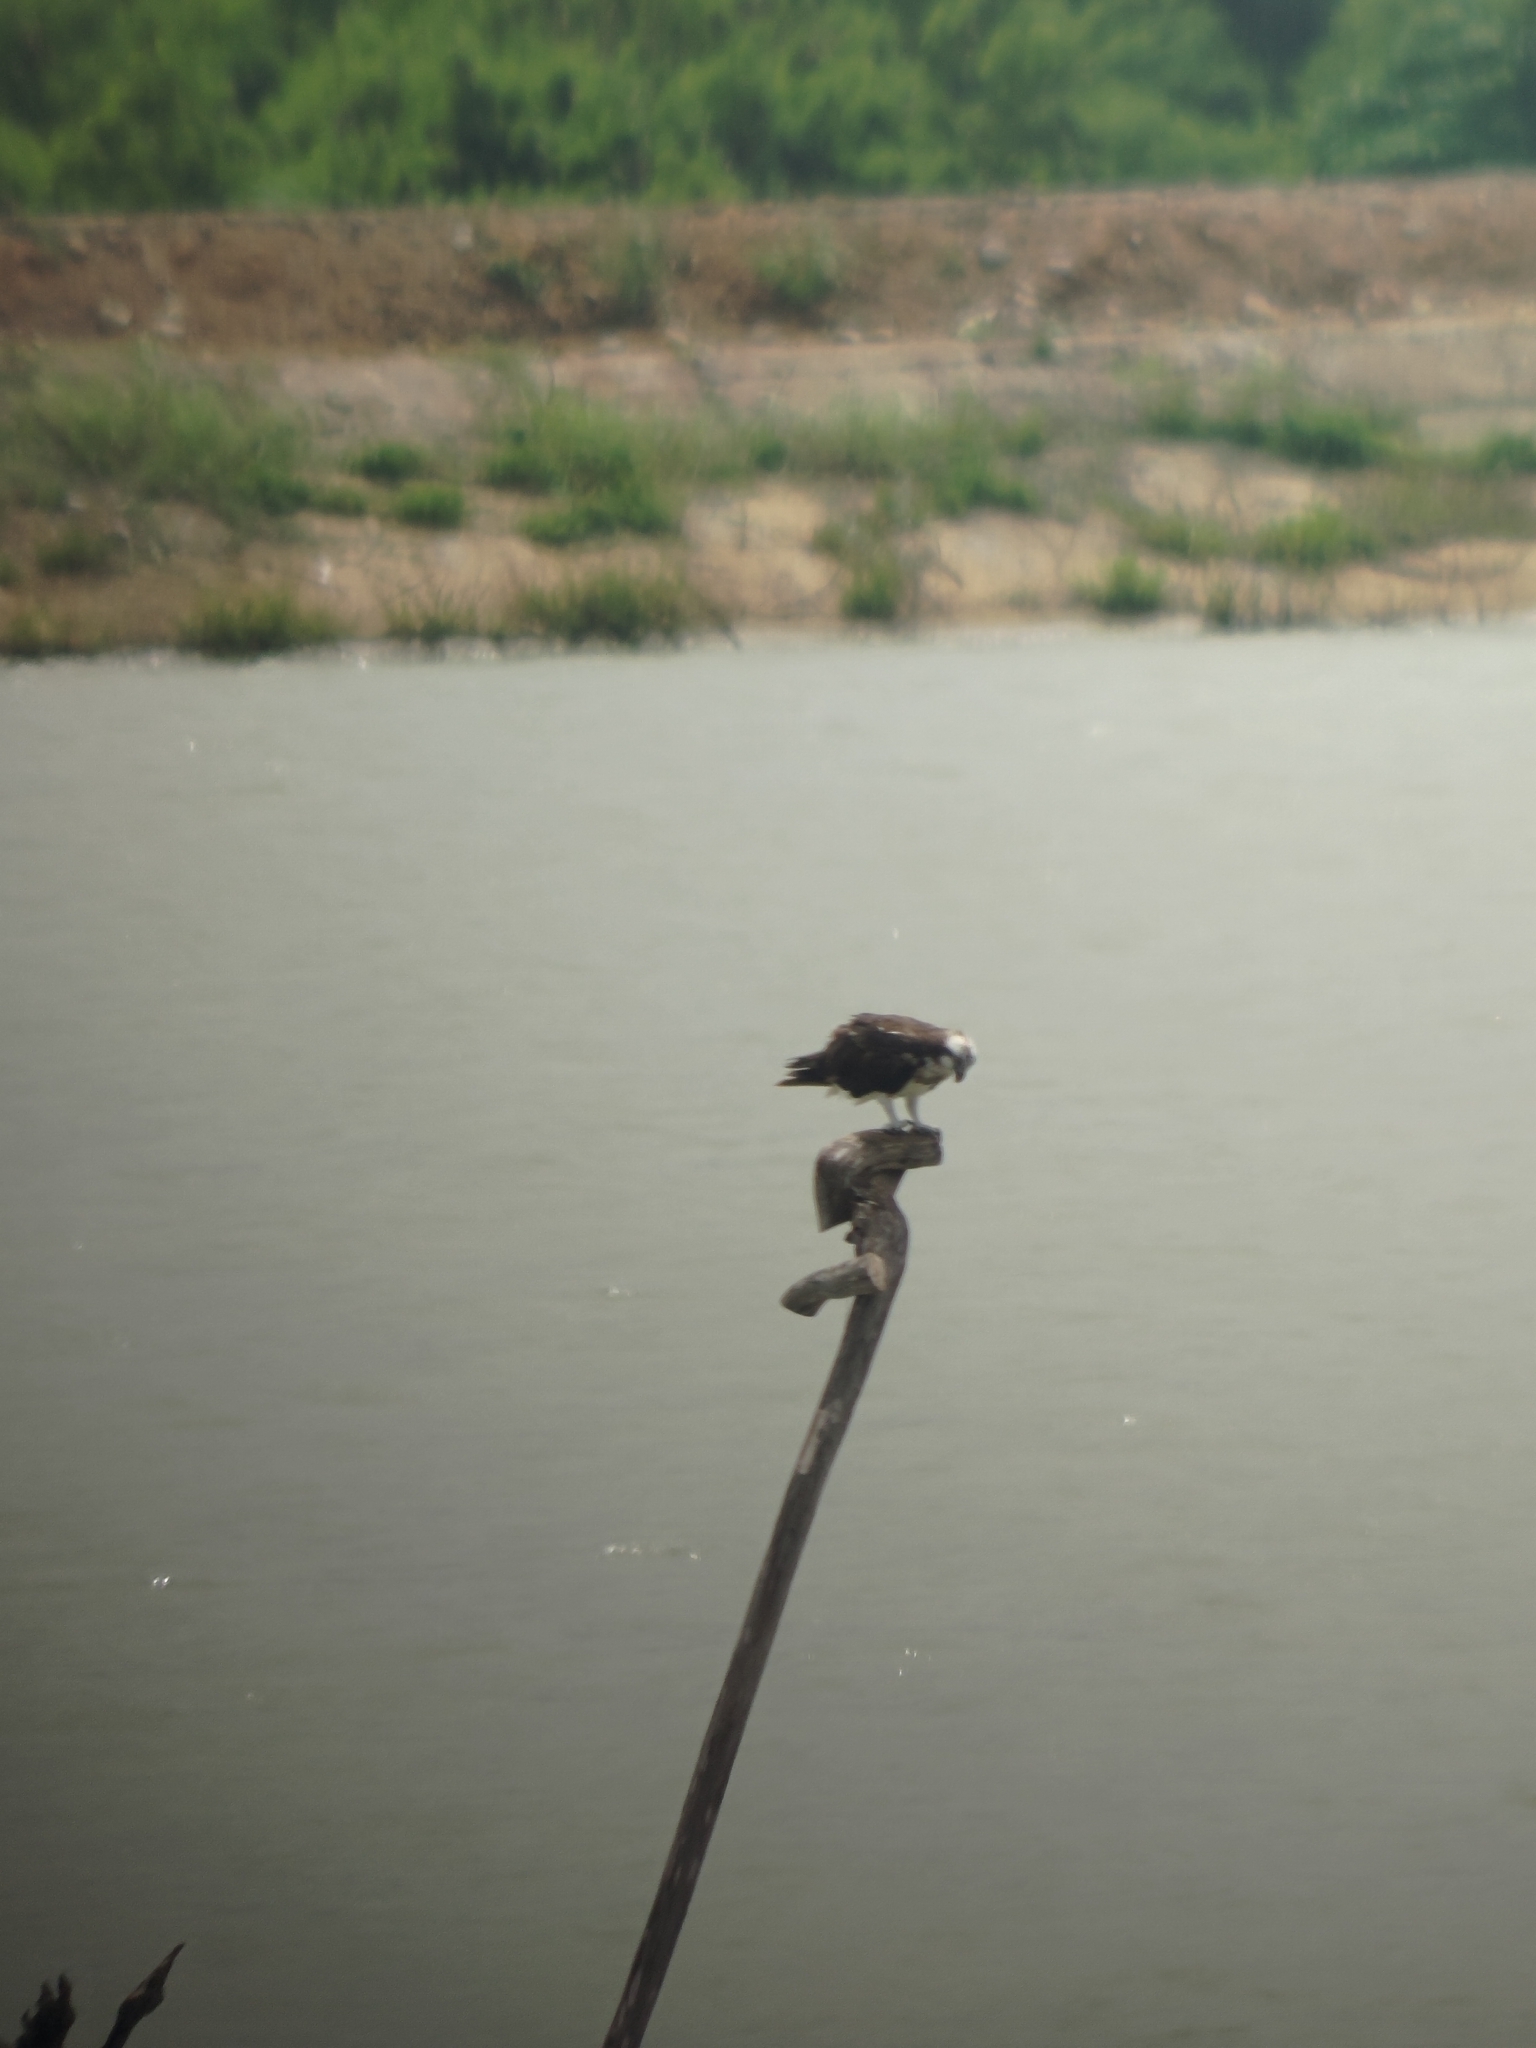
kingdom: Animalia
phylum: Chordata
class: Aves
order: Accipitriformes
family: Pandionidae
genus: Pandion
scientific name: Pandion haliaetus
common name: Osprey
